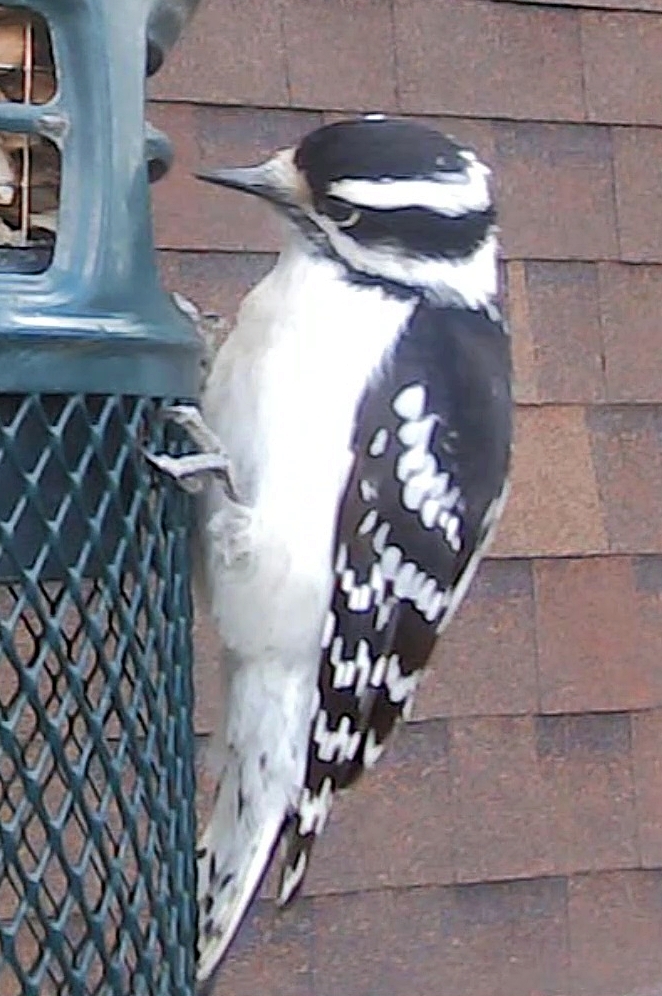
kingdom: Animalia
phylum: Chordata
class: Aves
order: Piciformes
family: Picidae
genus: Dryobates
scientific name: Dryobates pubescens
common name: Downy woodpecker
